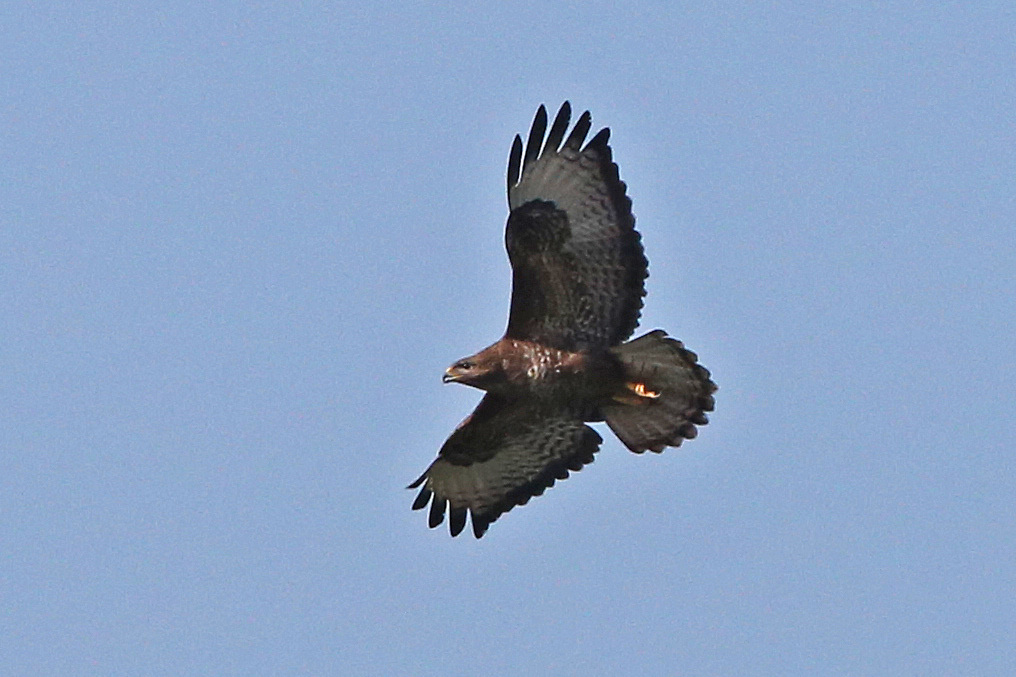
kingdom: Animalia
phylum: Chordata
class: Aves
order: Accipitriformes
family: Accipitridae
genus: Buteo
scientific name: Buteo buteo
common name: Common buzzard
